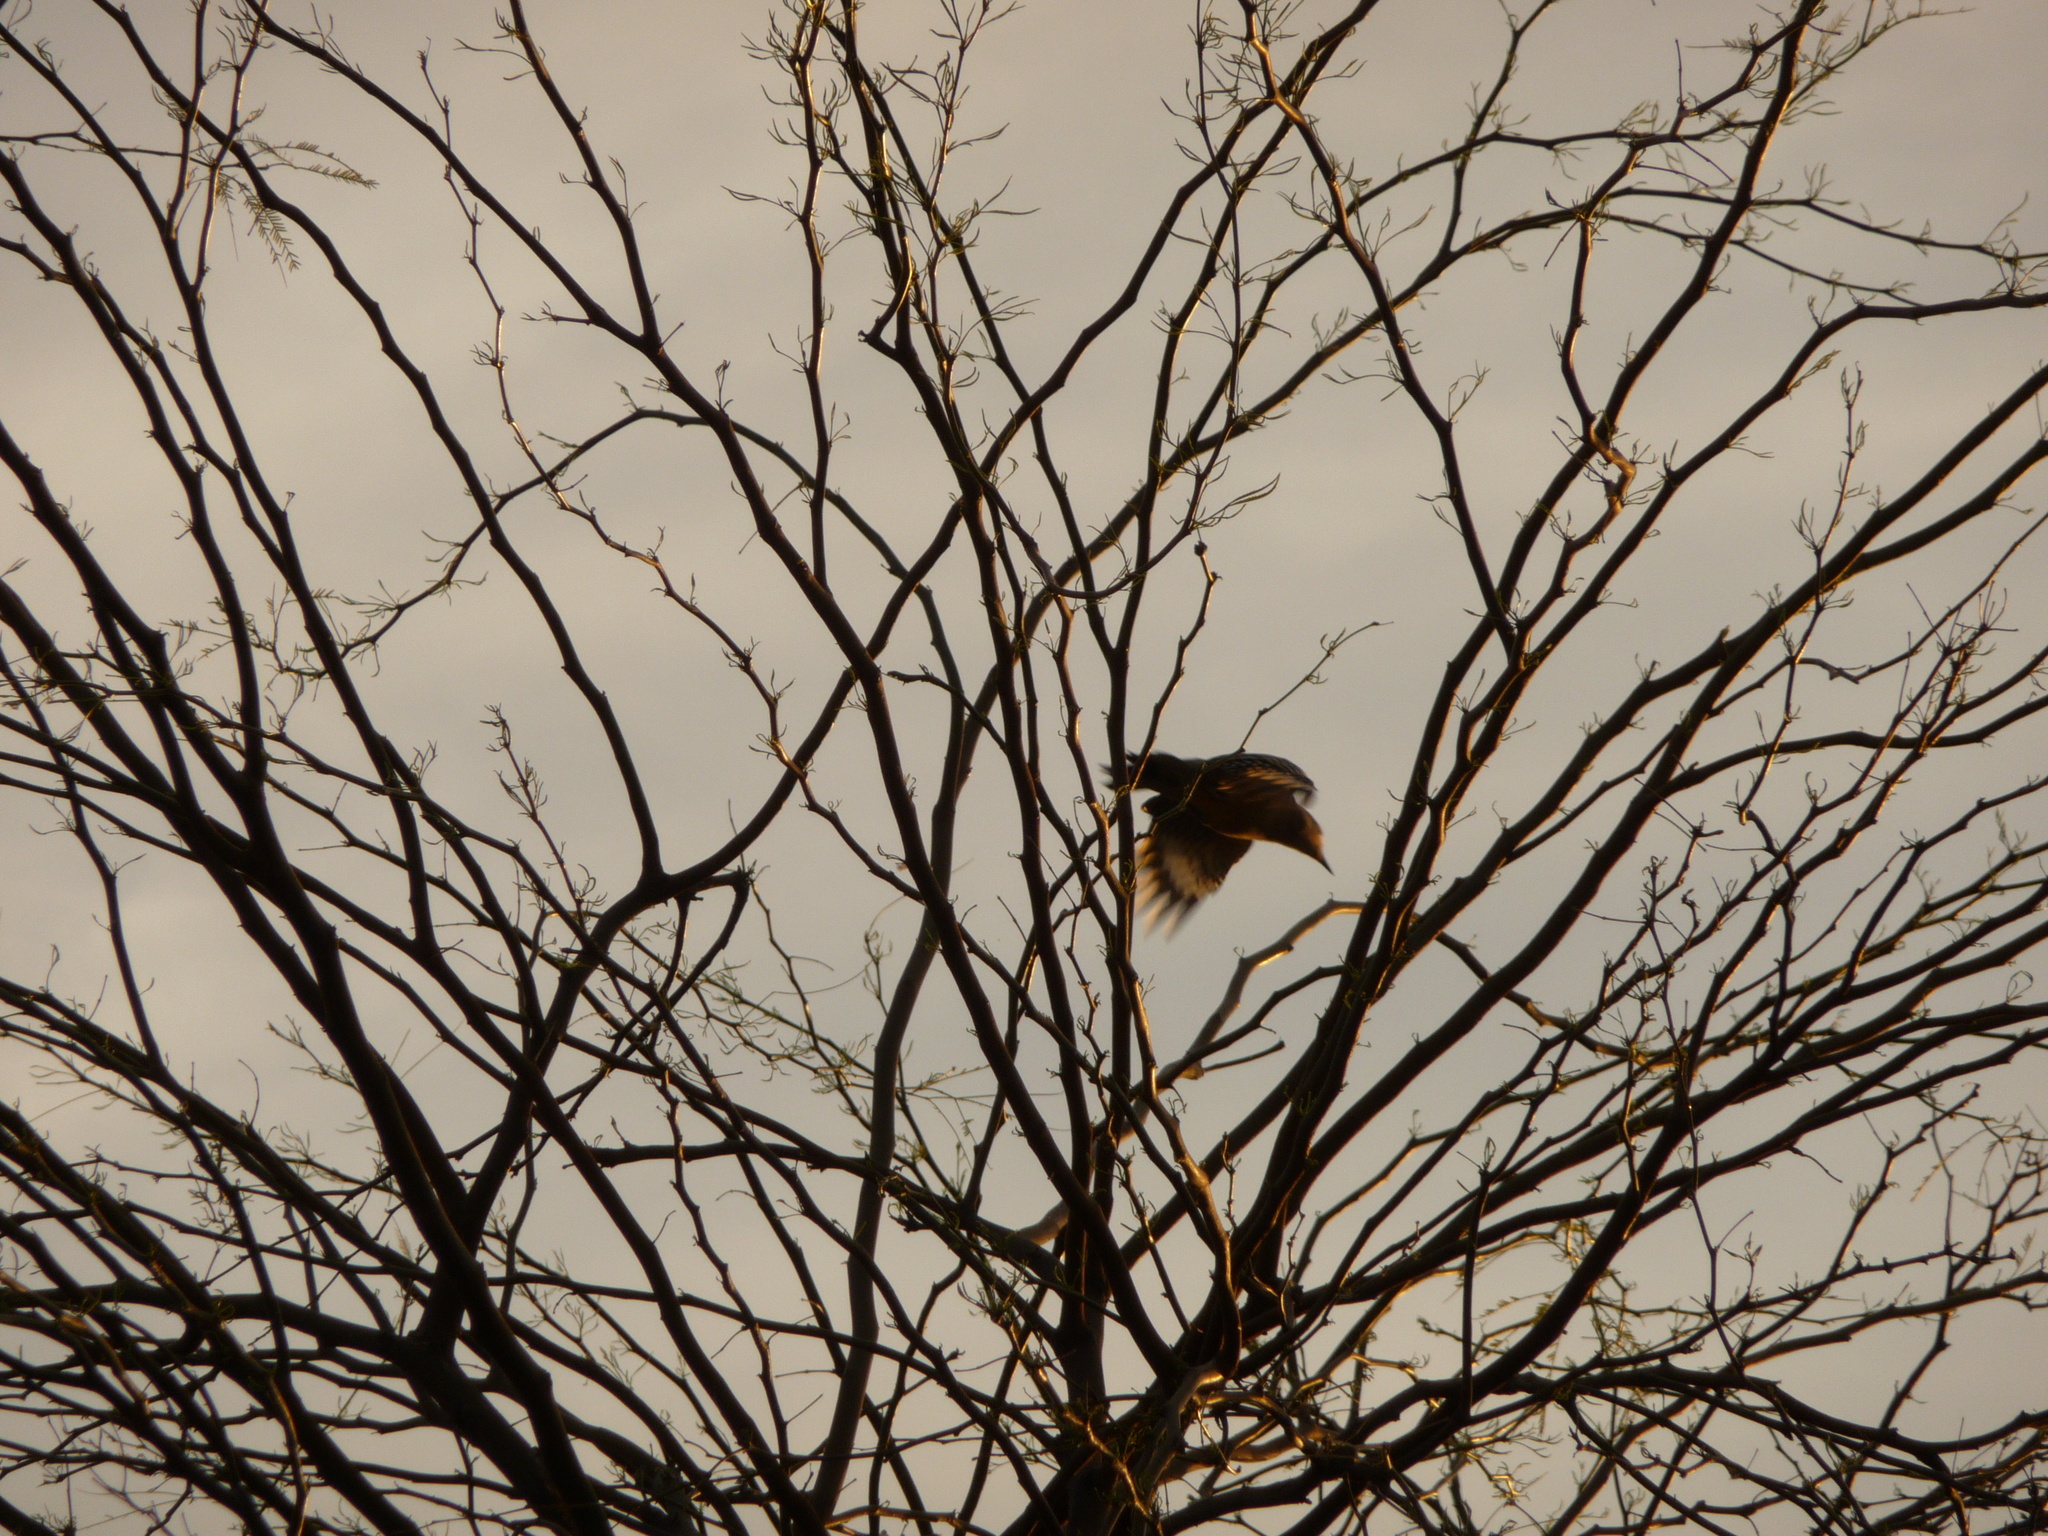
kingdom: Animalia
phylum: Chordata
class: Aves
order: Piciformes
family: Picidae
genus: Melanerpes
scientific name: Melanerpes uropygialis
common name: Gila woodpecker
